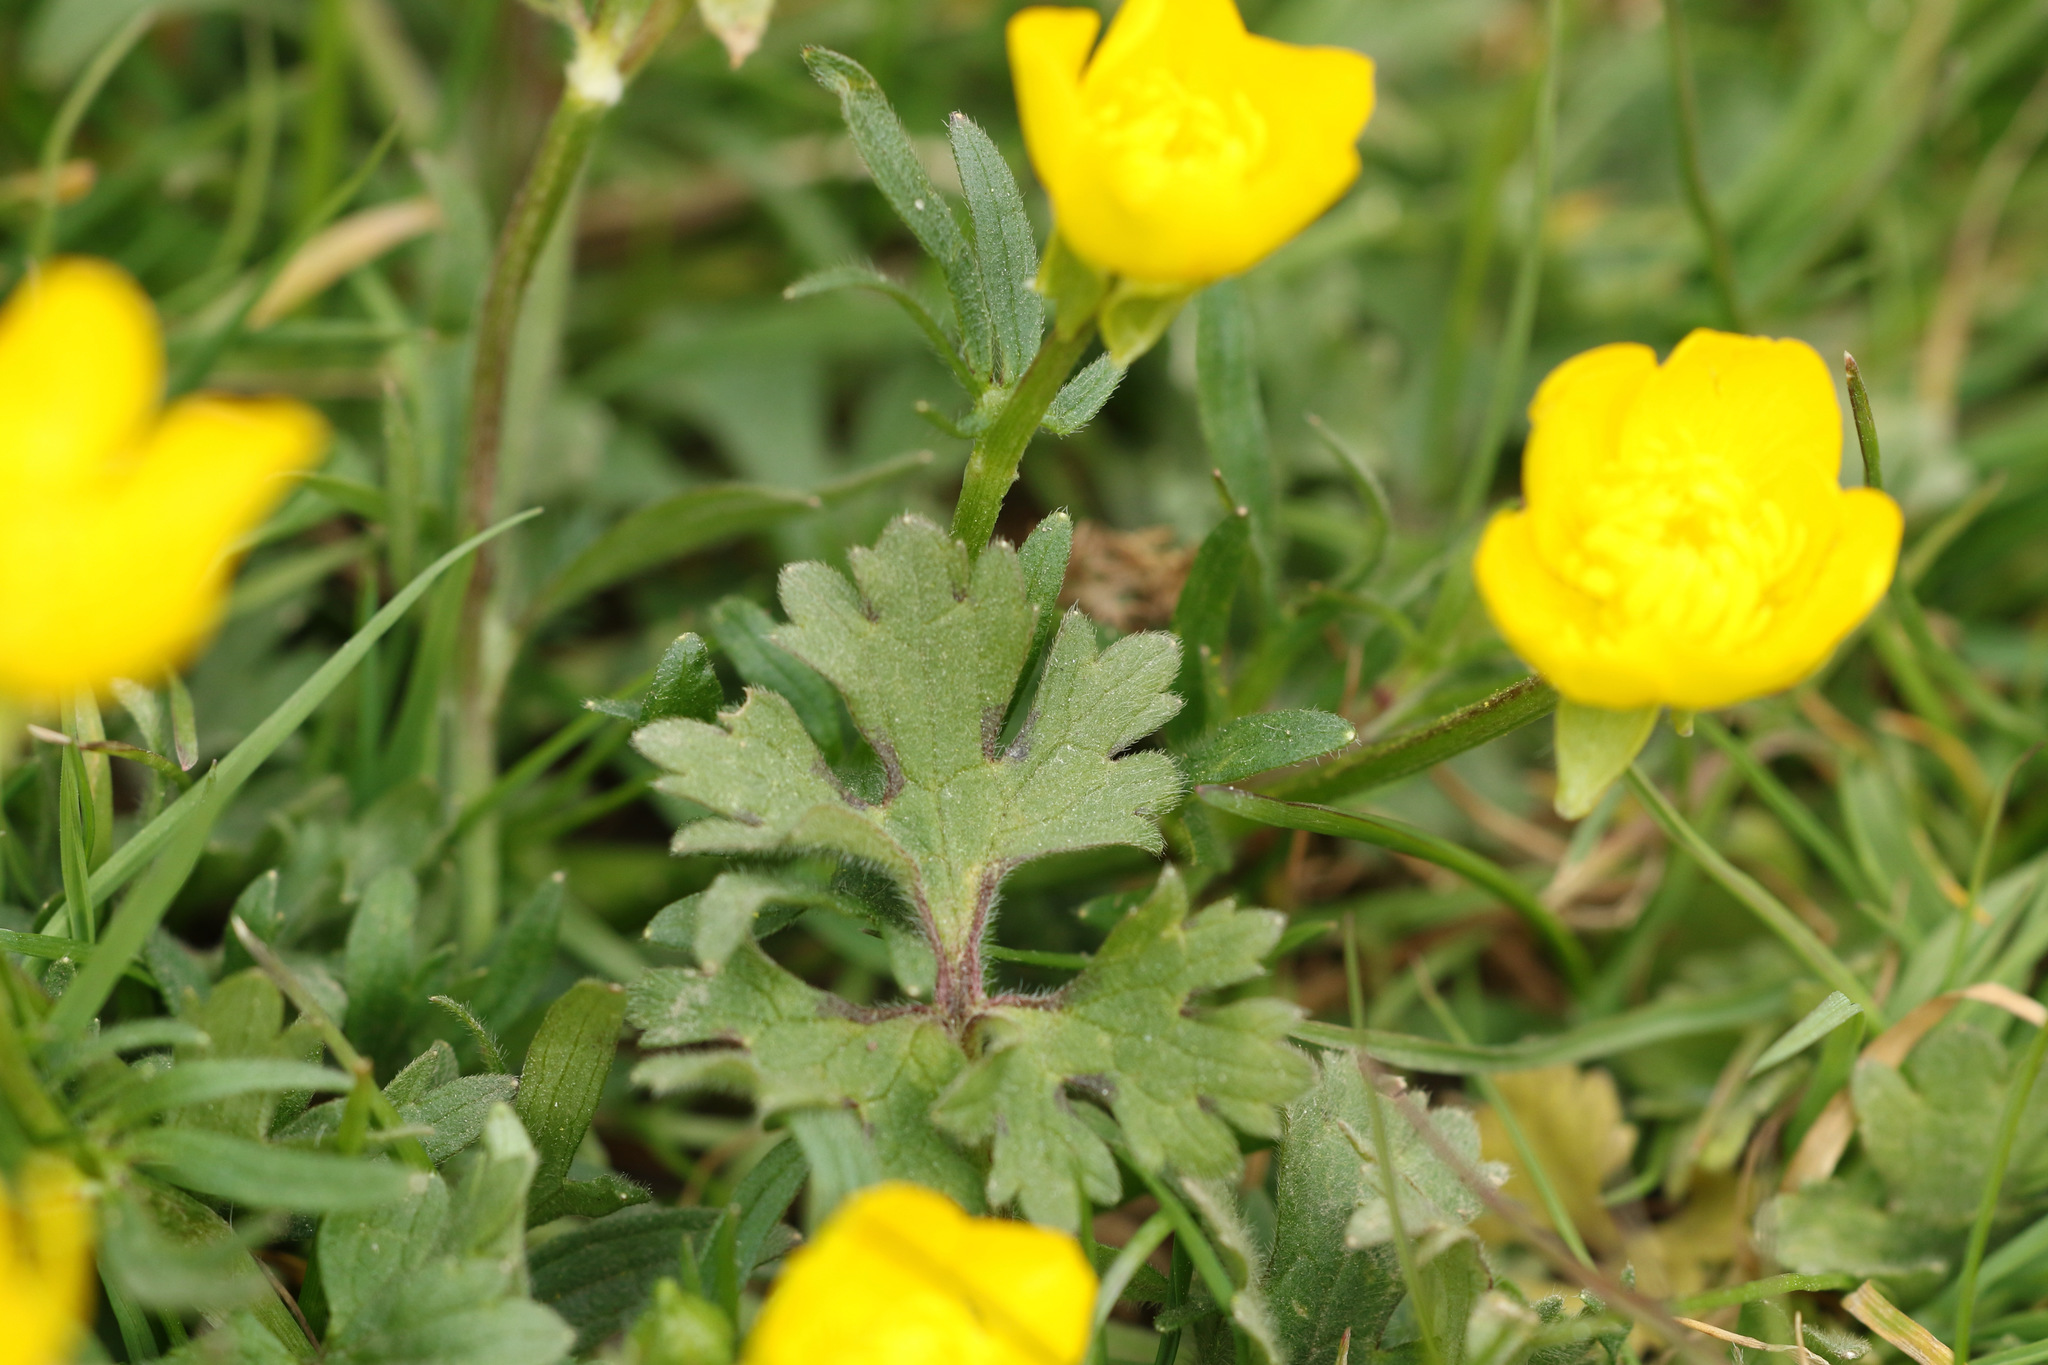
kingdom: Plantae
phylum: Tracheophyta
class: Magnoliopsida
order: Ranunculales
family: Ranunculaceae
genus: Ranunculus
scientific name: Ranunculus bulbosus
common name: Bulbous buttercup
